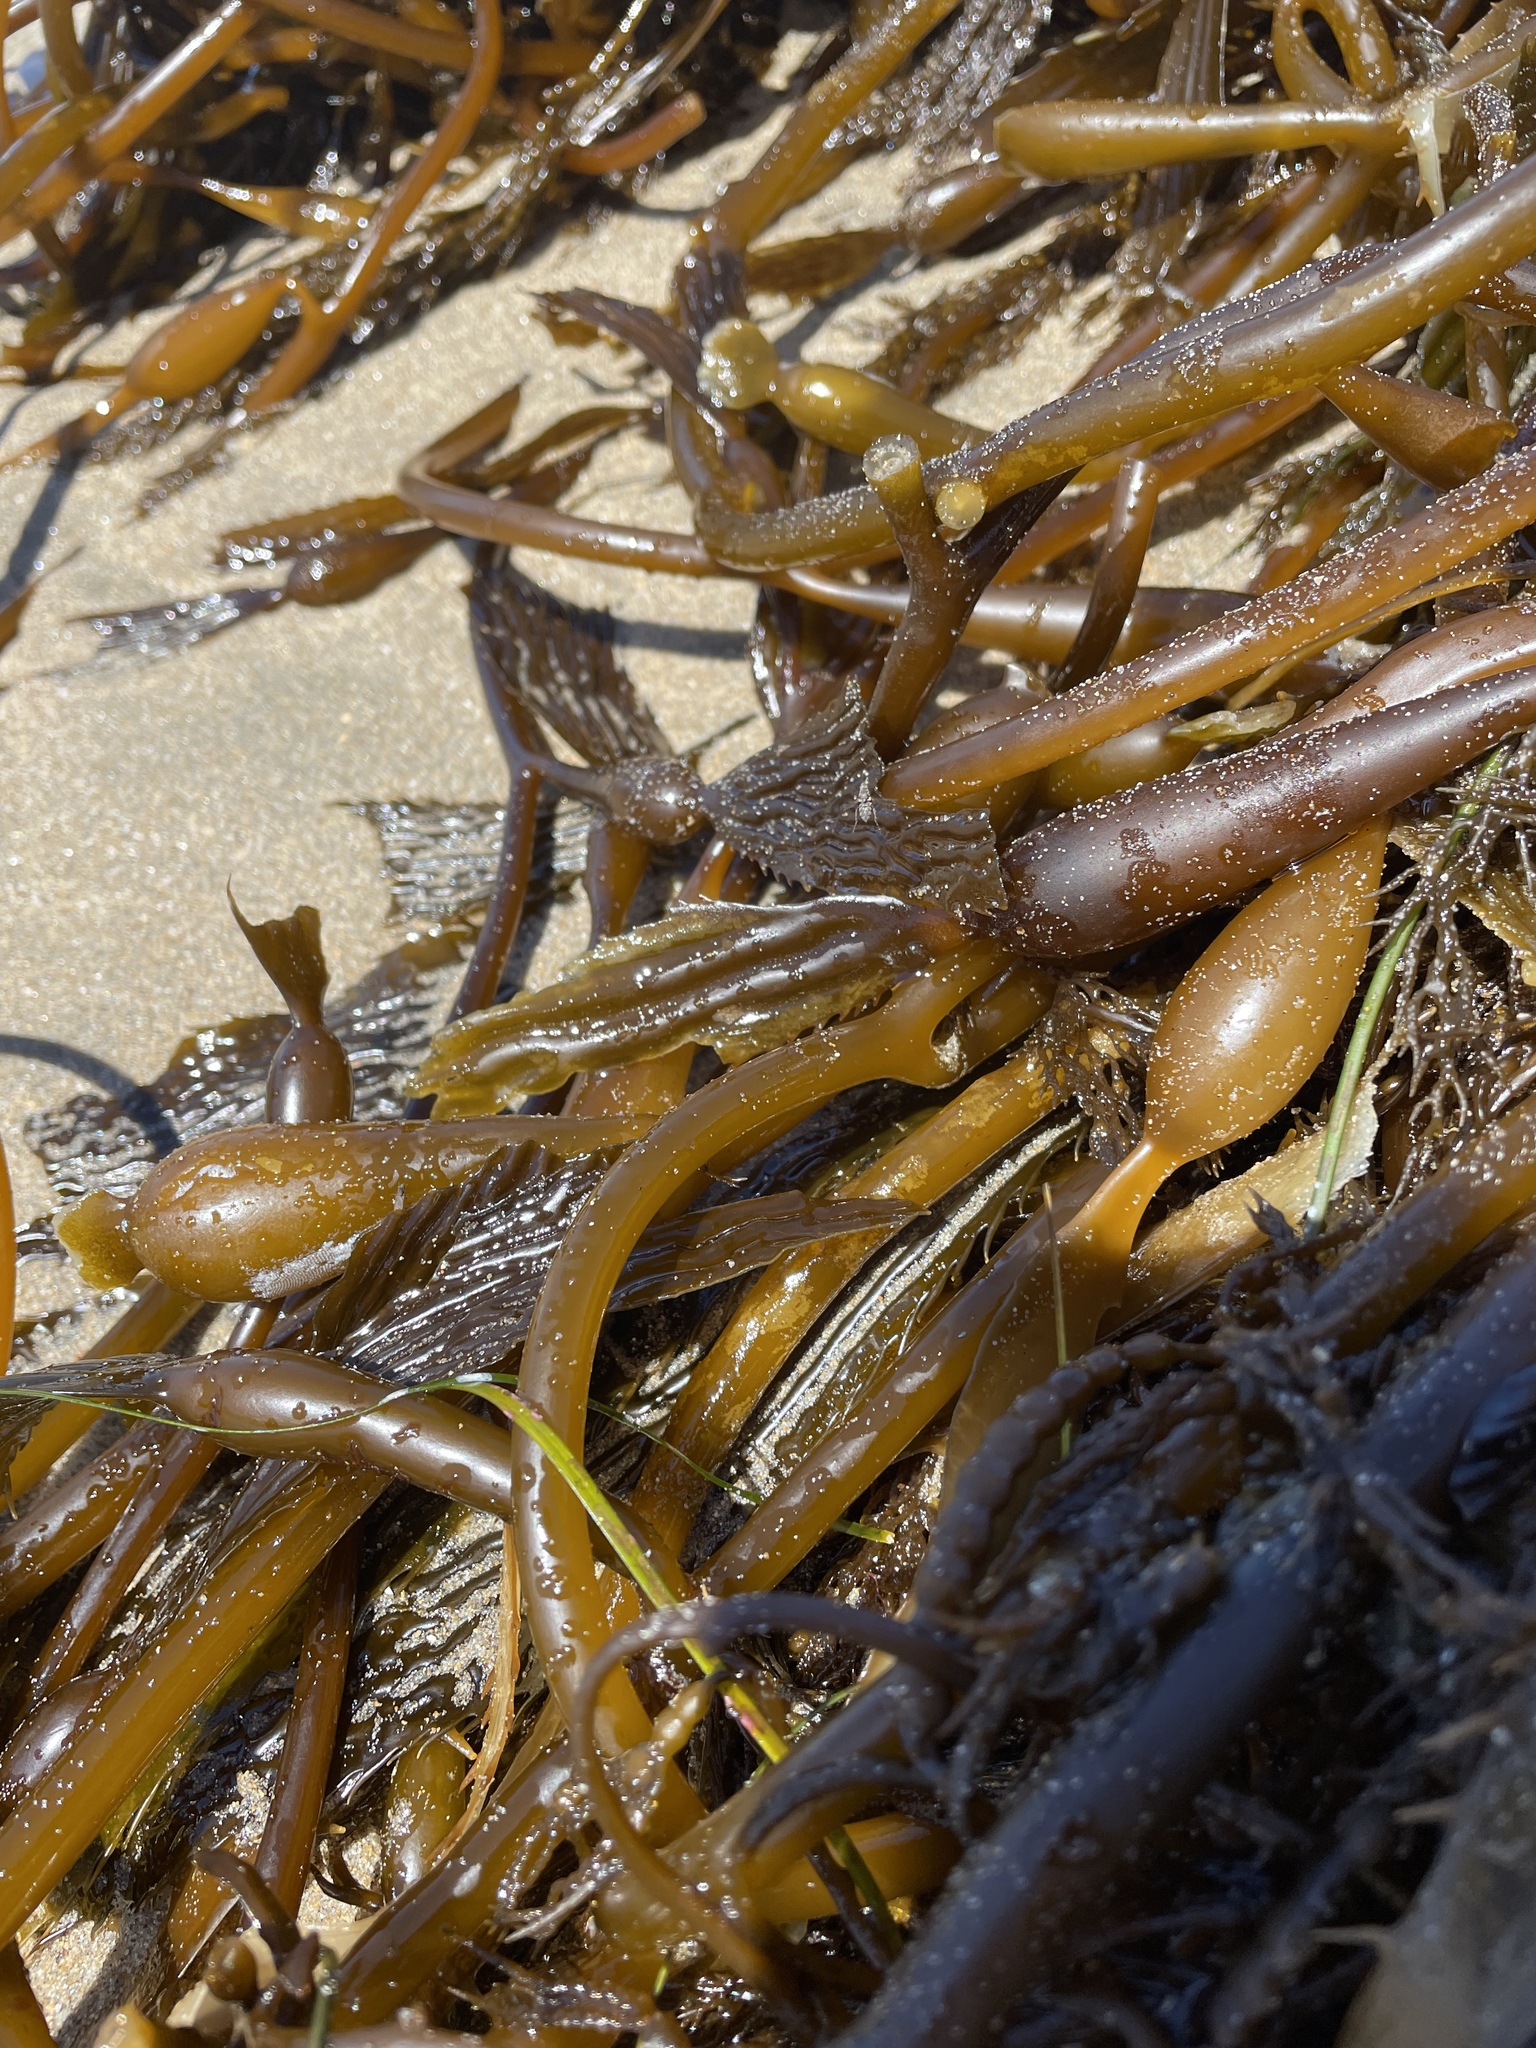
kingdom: Chromista
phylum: Ochrophyta
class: Phaeophyceae
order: Laminariales
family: Laminariaceae
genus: Macrocystis
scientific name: Macrocystis pyrifera
